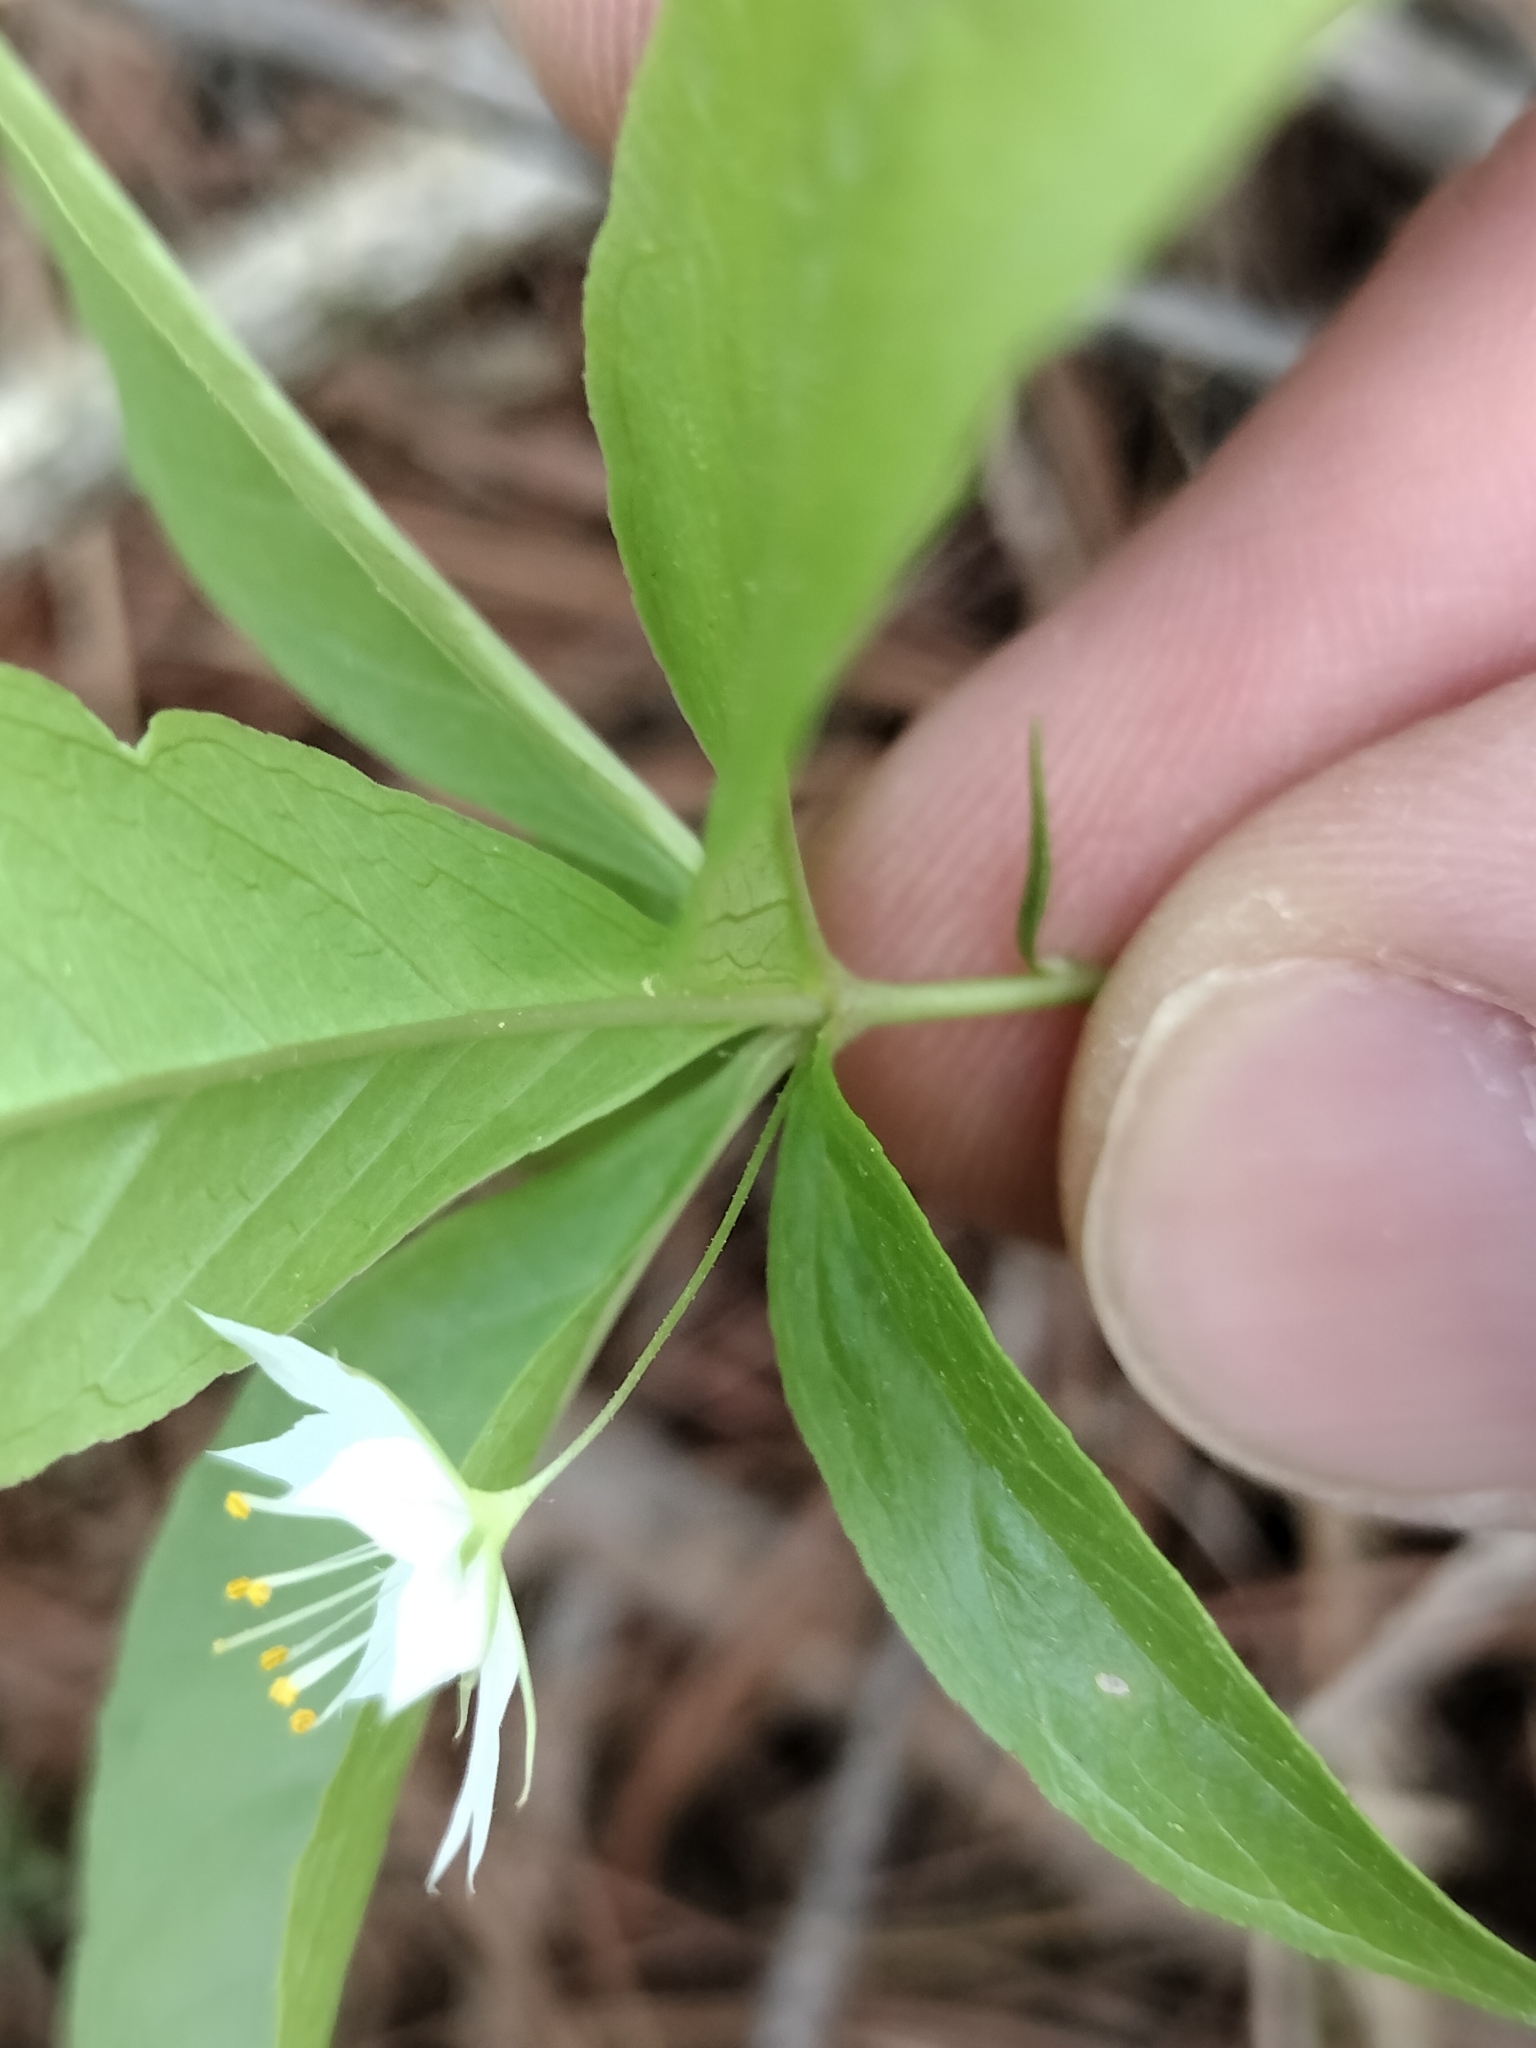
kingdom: Plantae
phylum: Tracheophyta
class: Magnoliopsida
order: Ericales
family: Primulaceae
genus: Lysimachia
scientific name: Lysimachia borealis
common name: American starflower
